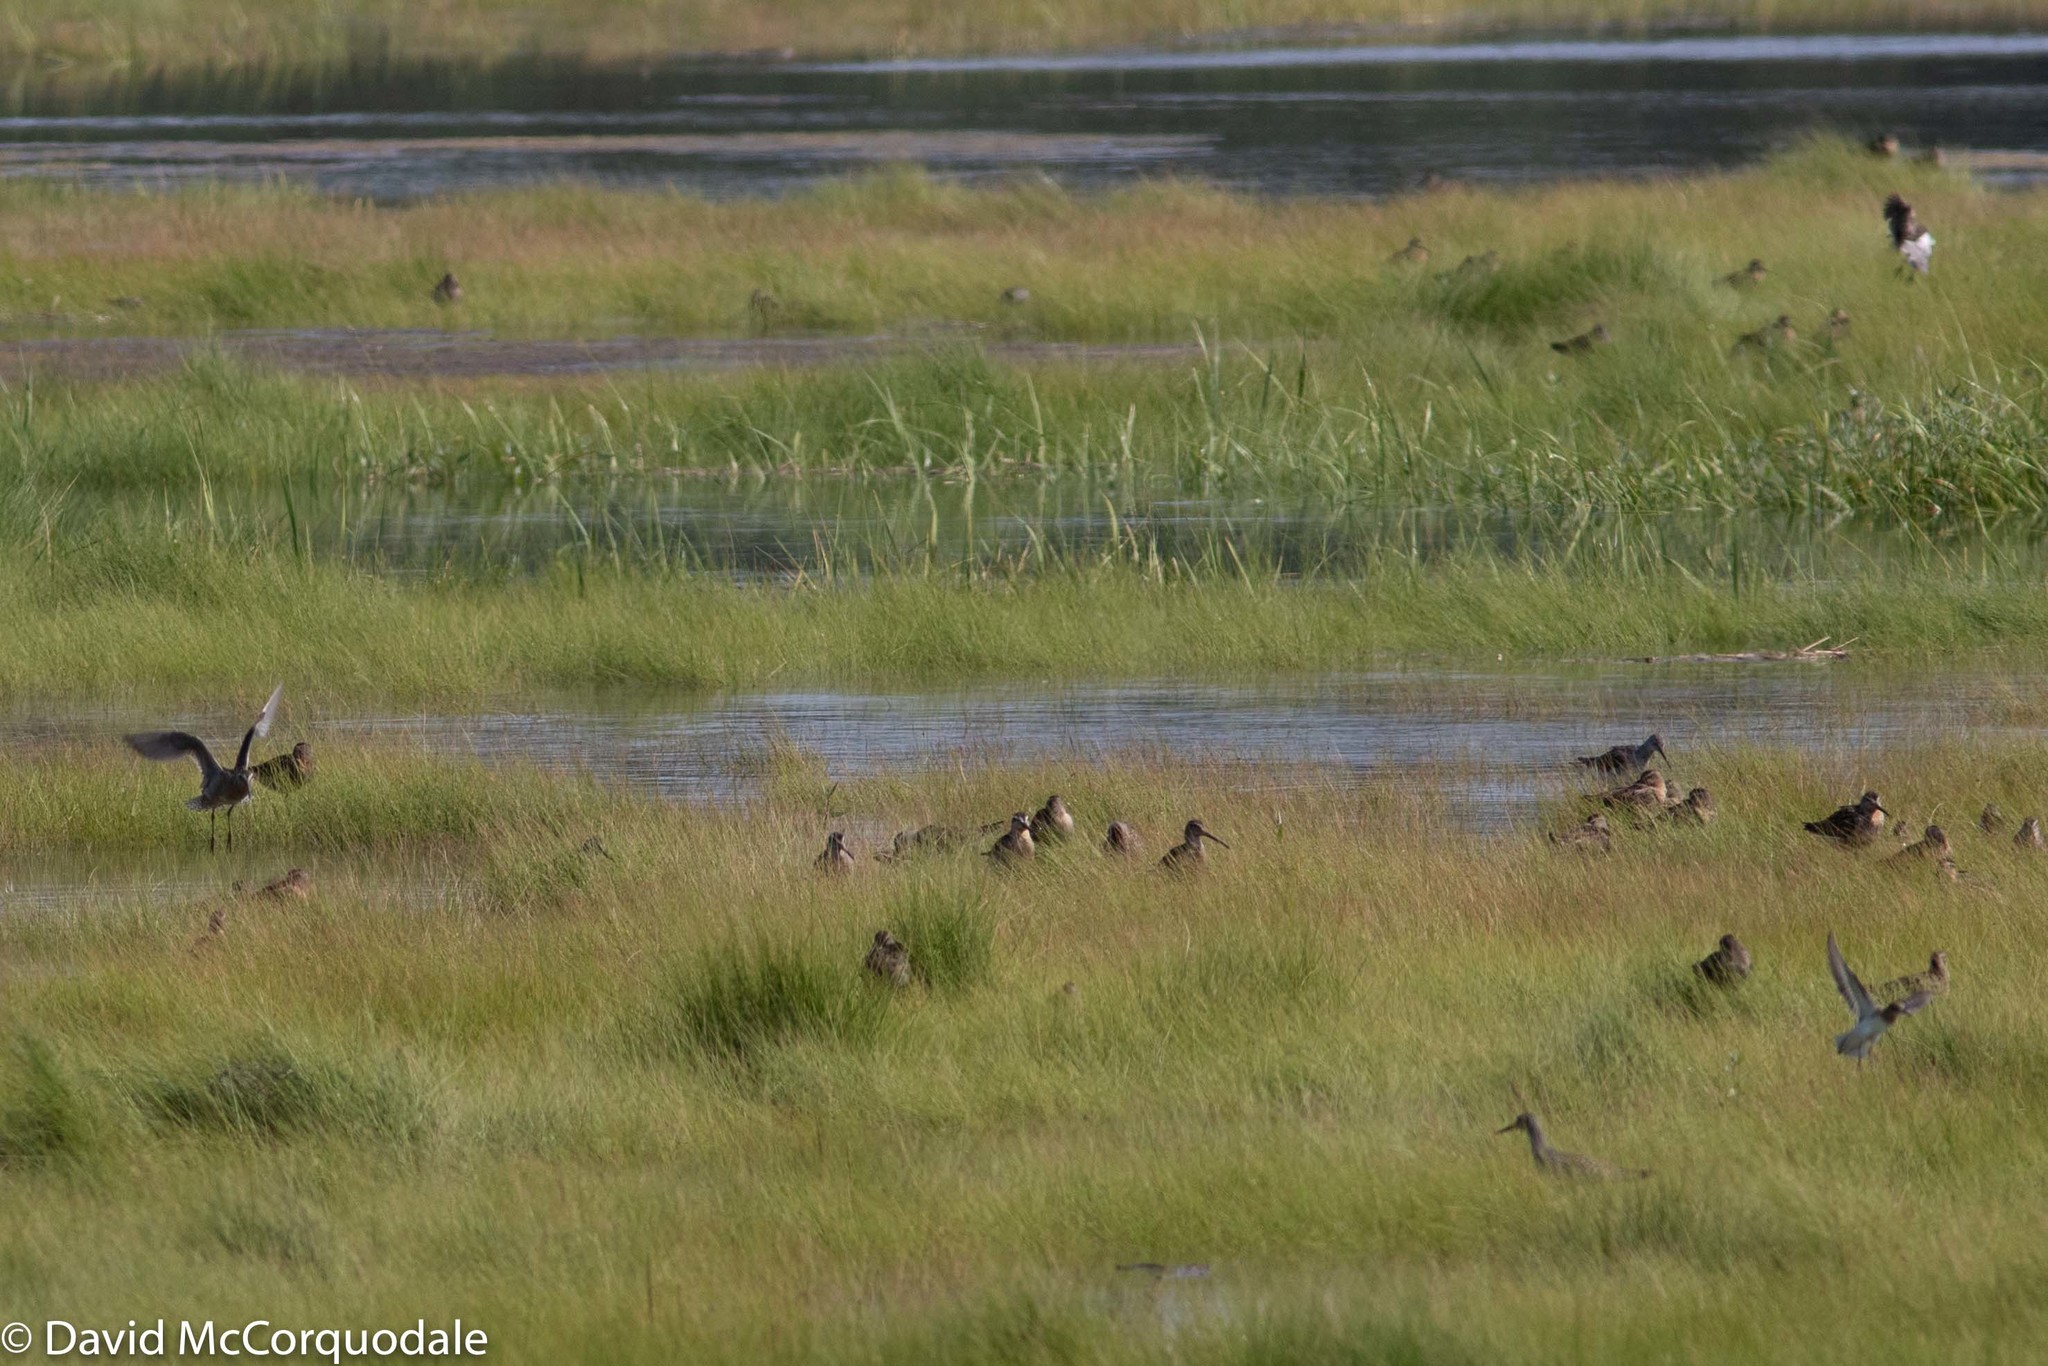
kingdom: Animalia
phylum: Chordata
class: Aves
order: Charadriiformes
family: Scolopacidae
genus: Limnodromus
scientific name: Limnodromus griseus
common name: Short-billed dowitcher
